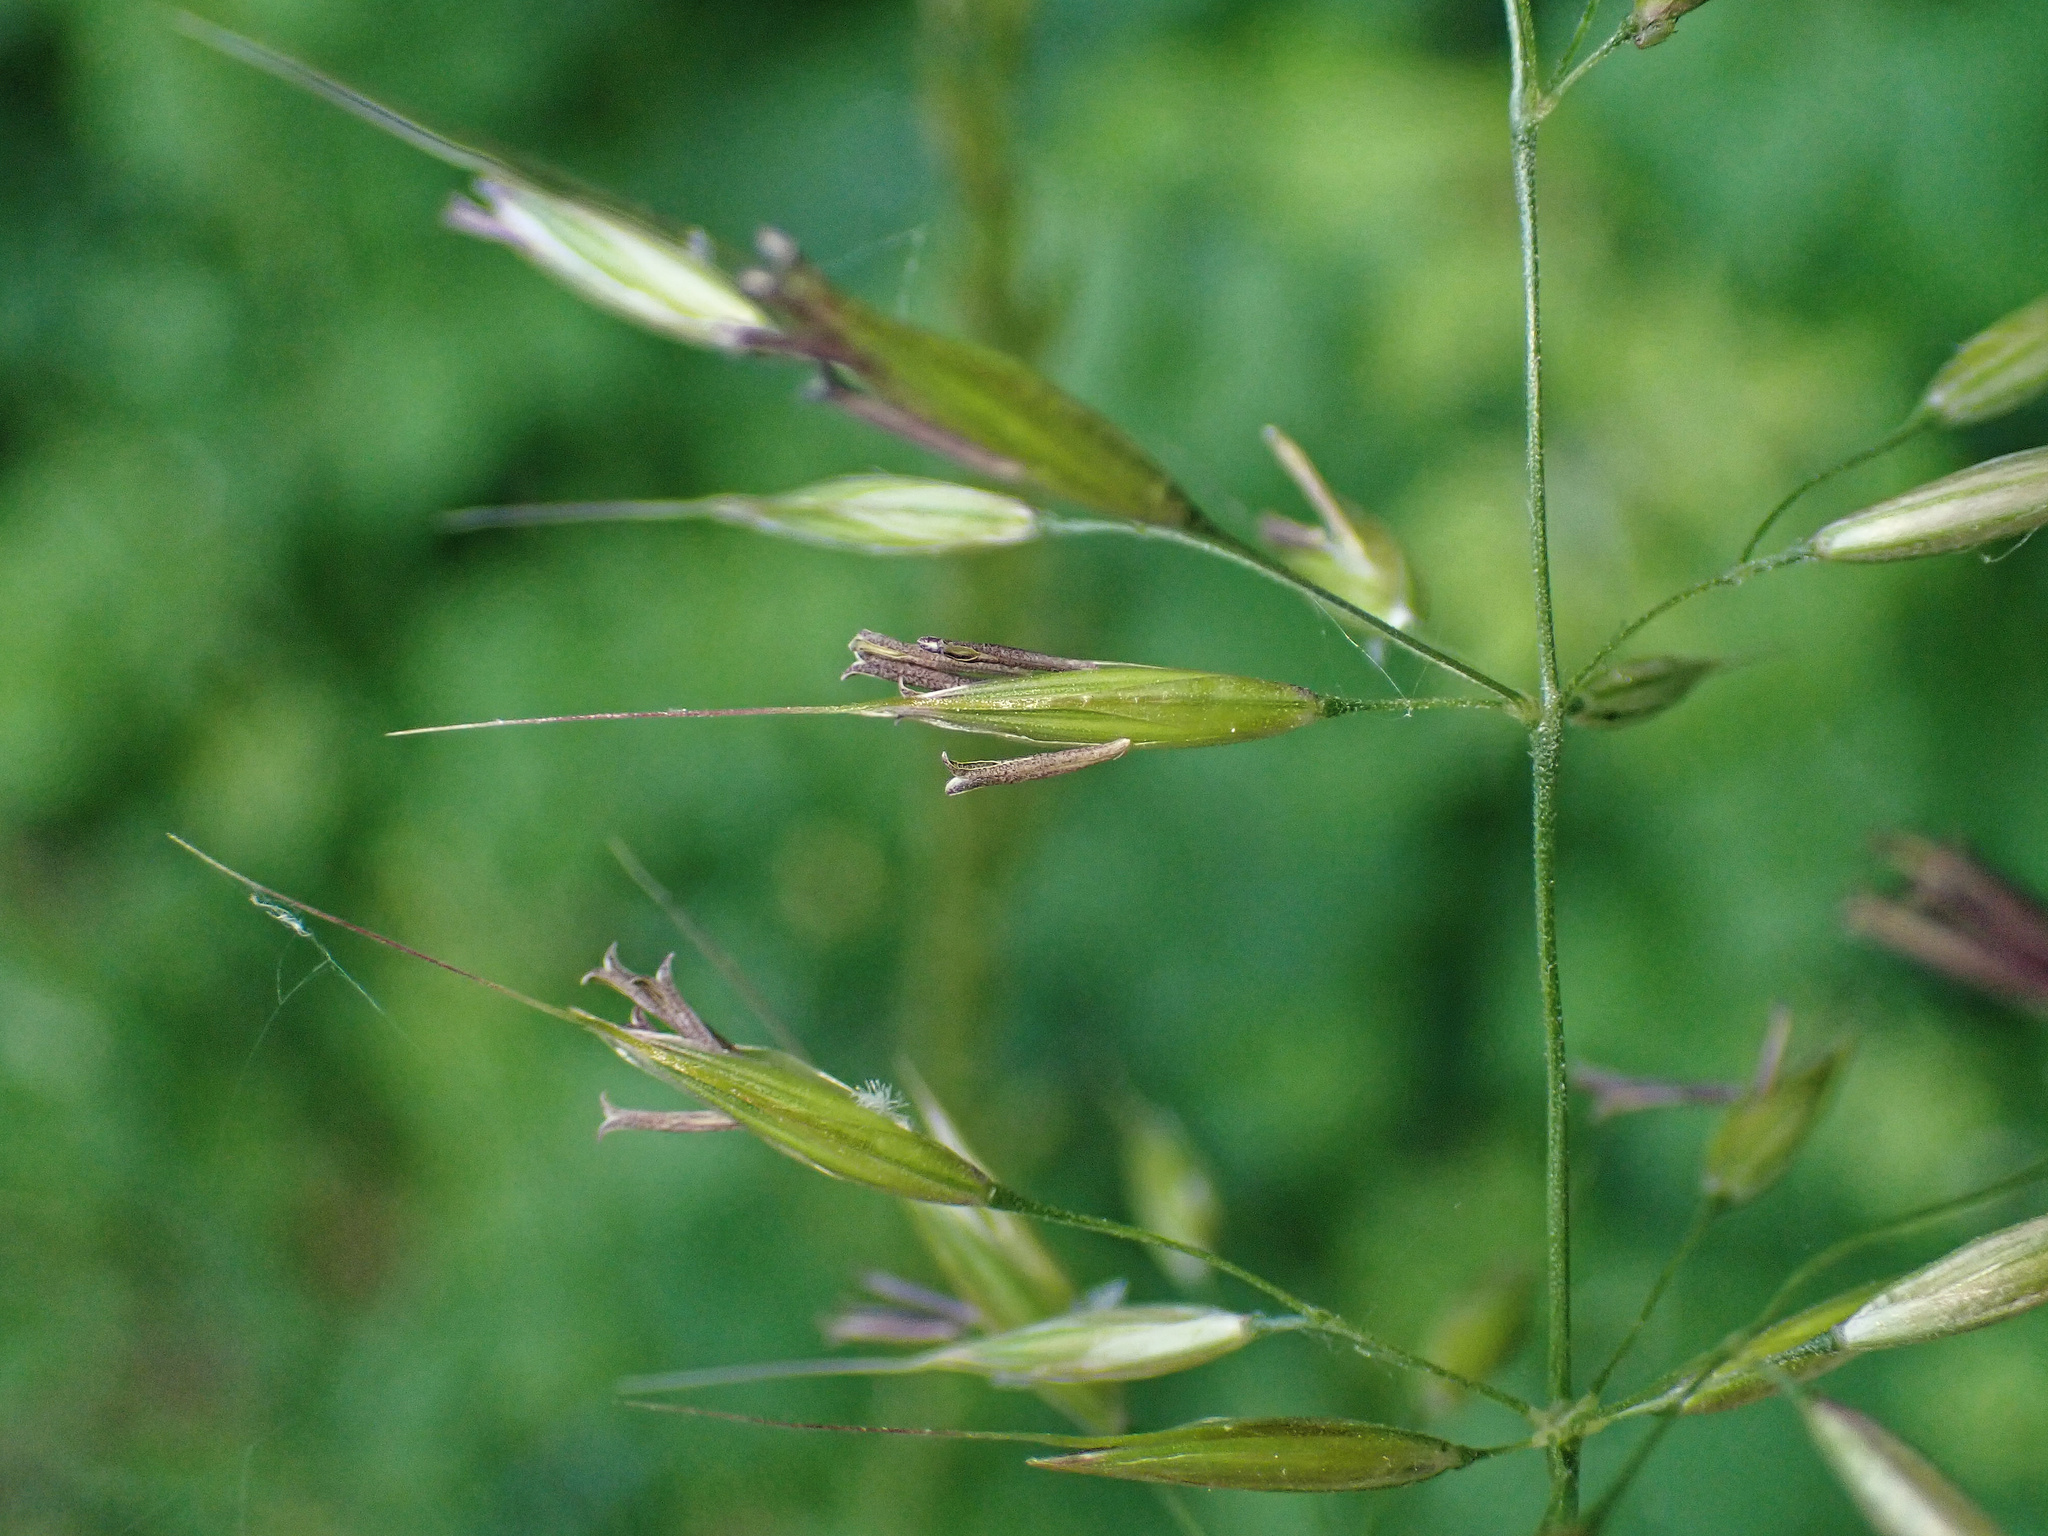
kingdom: Plantae
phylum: Tracheophyta
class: Liliopsida
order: Poales
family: Poaceae
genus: Arrhenatherum
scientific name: Arrhenatherum elatius
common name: Tall oatgrass
